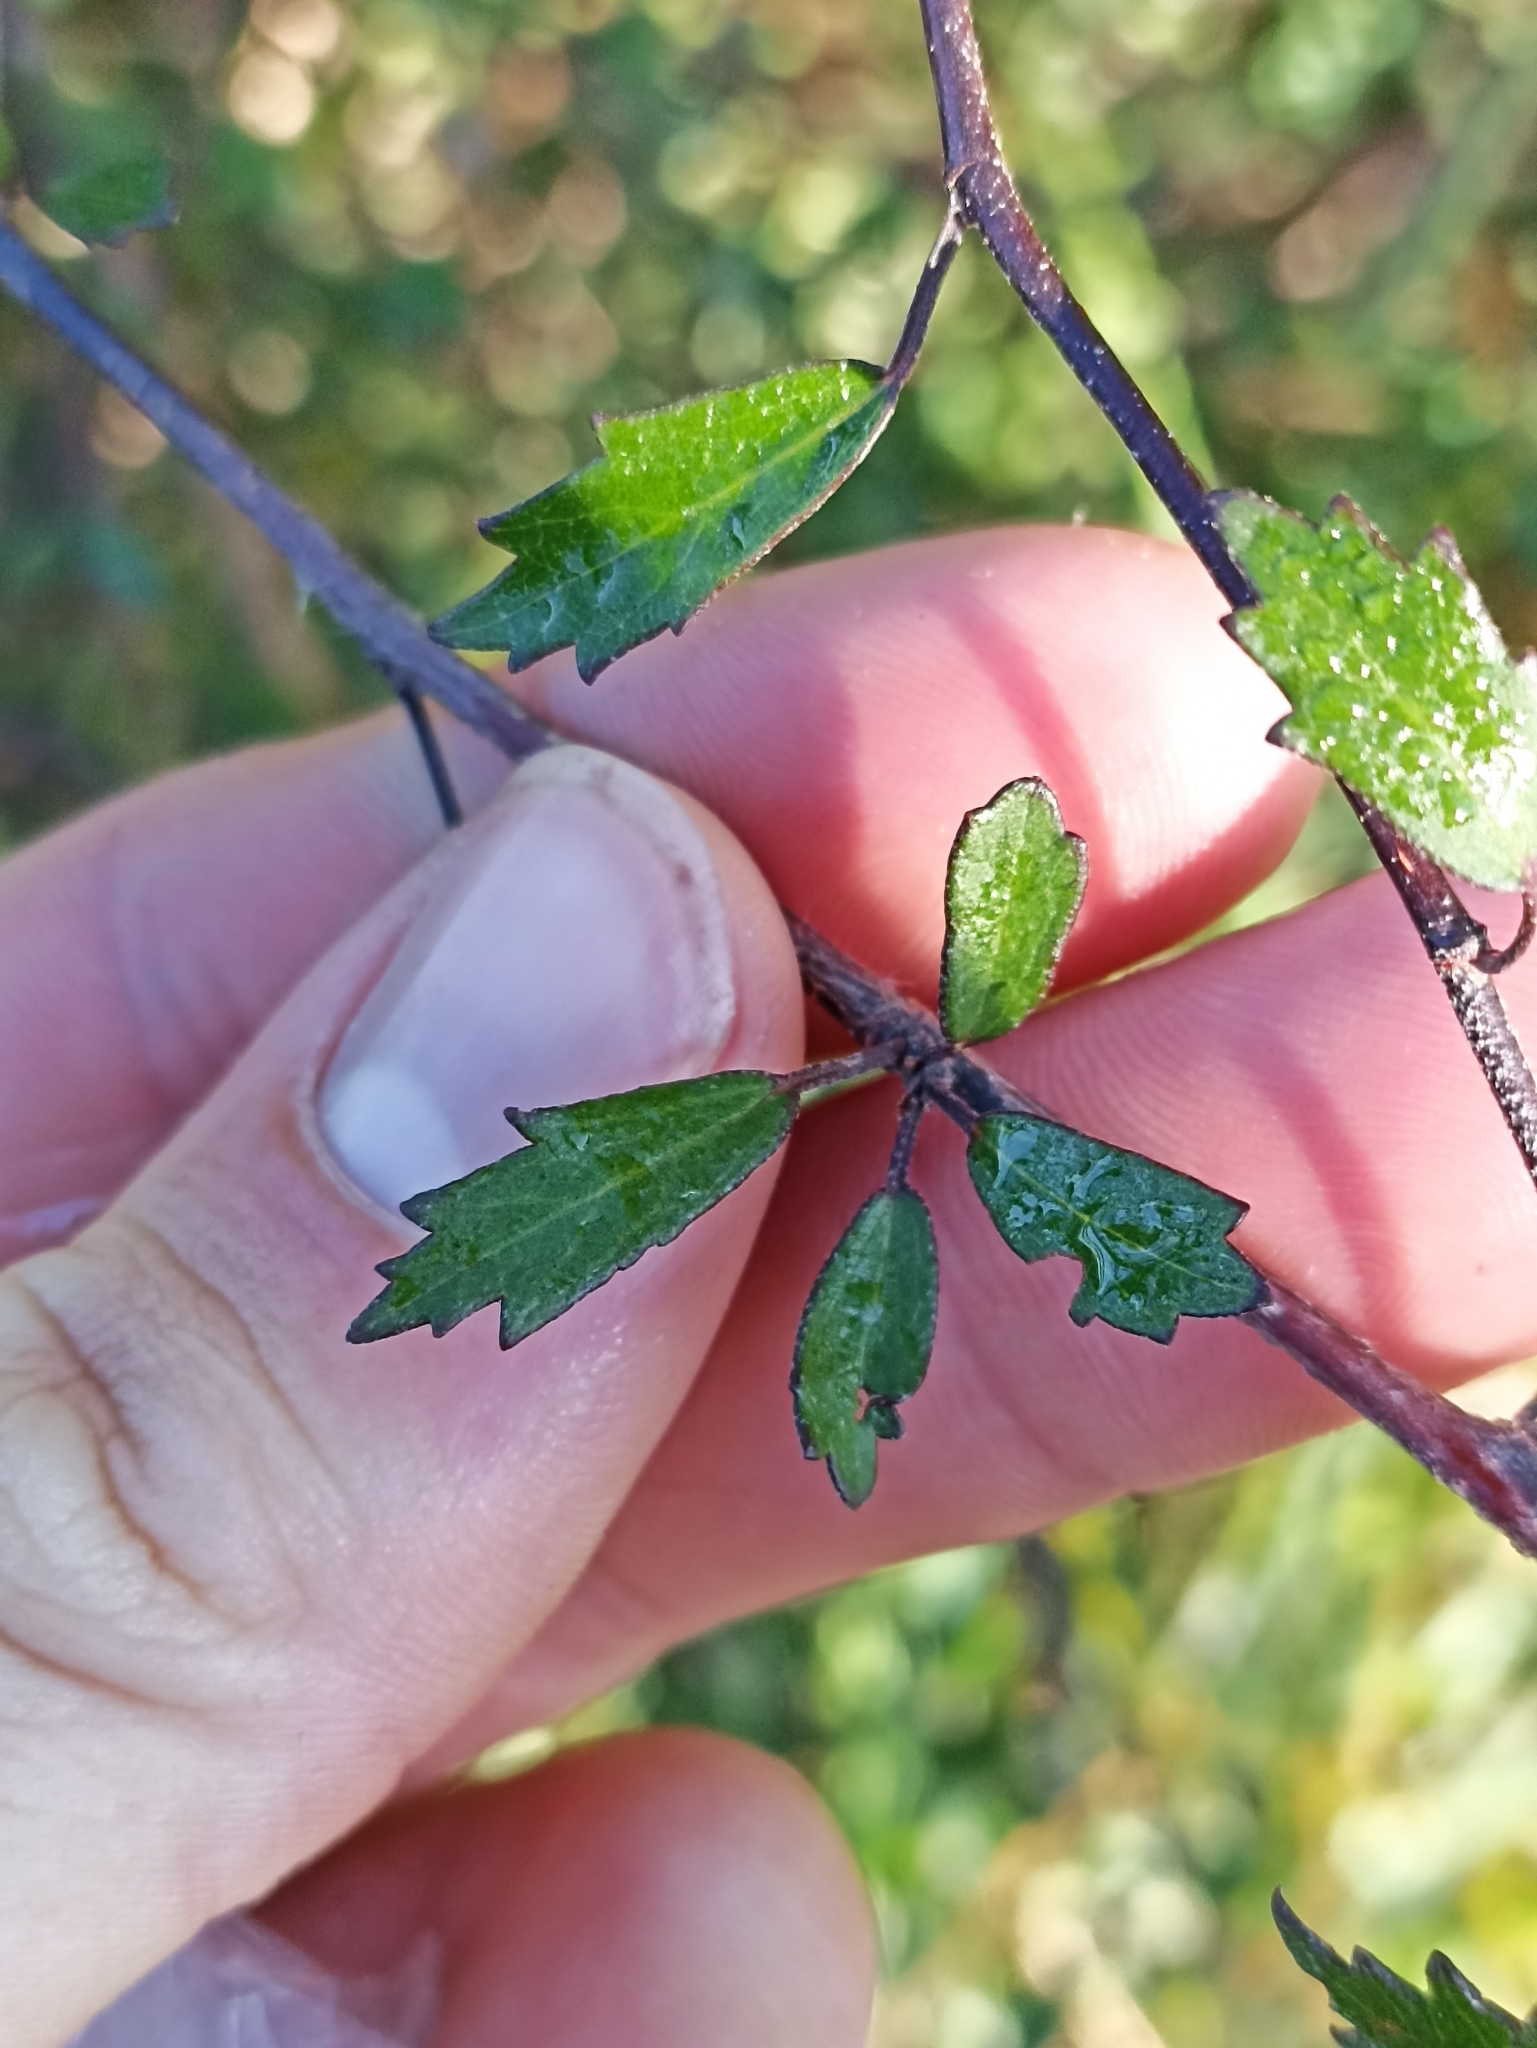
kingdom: Plantae
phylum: Tracheophyta
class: Magnoliopsida
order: Malvales
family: Malvaceae
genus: Hoheria
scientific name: Hoheria angustifolia
